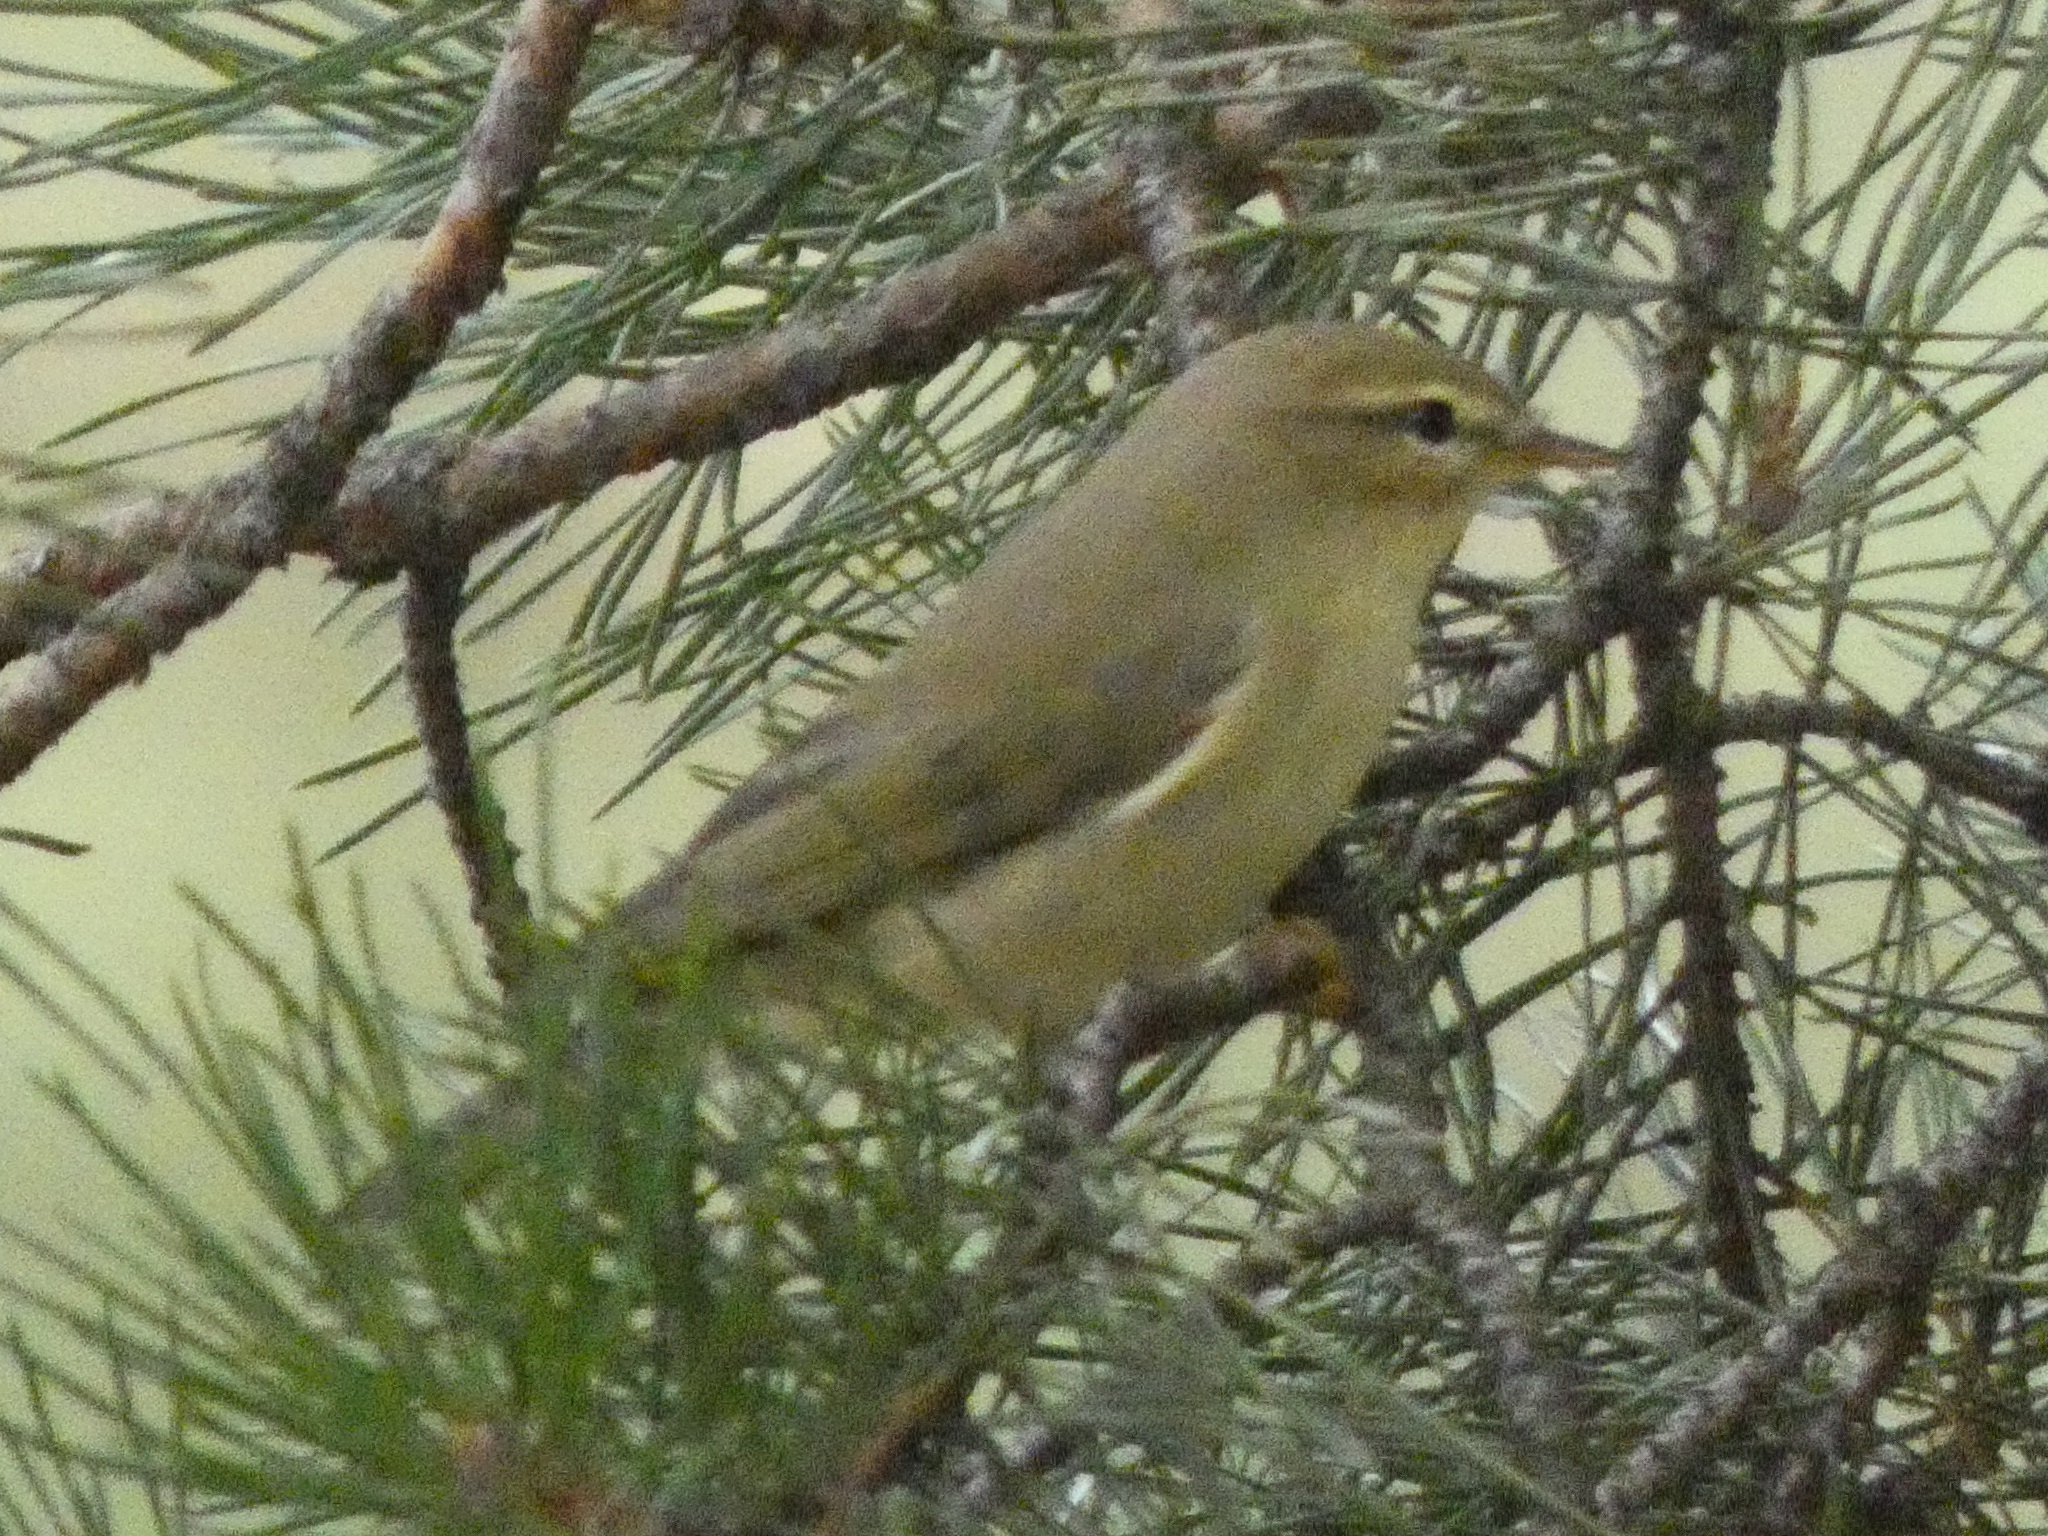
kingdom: Animalia
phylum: Chordata
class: Aves
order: Passeriformes
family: Phylloscopidae
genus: Phylloscopus
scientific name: Phylloscopus trochilus
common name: Willow warbler
